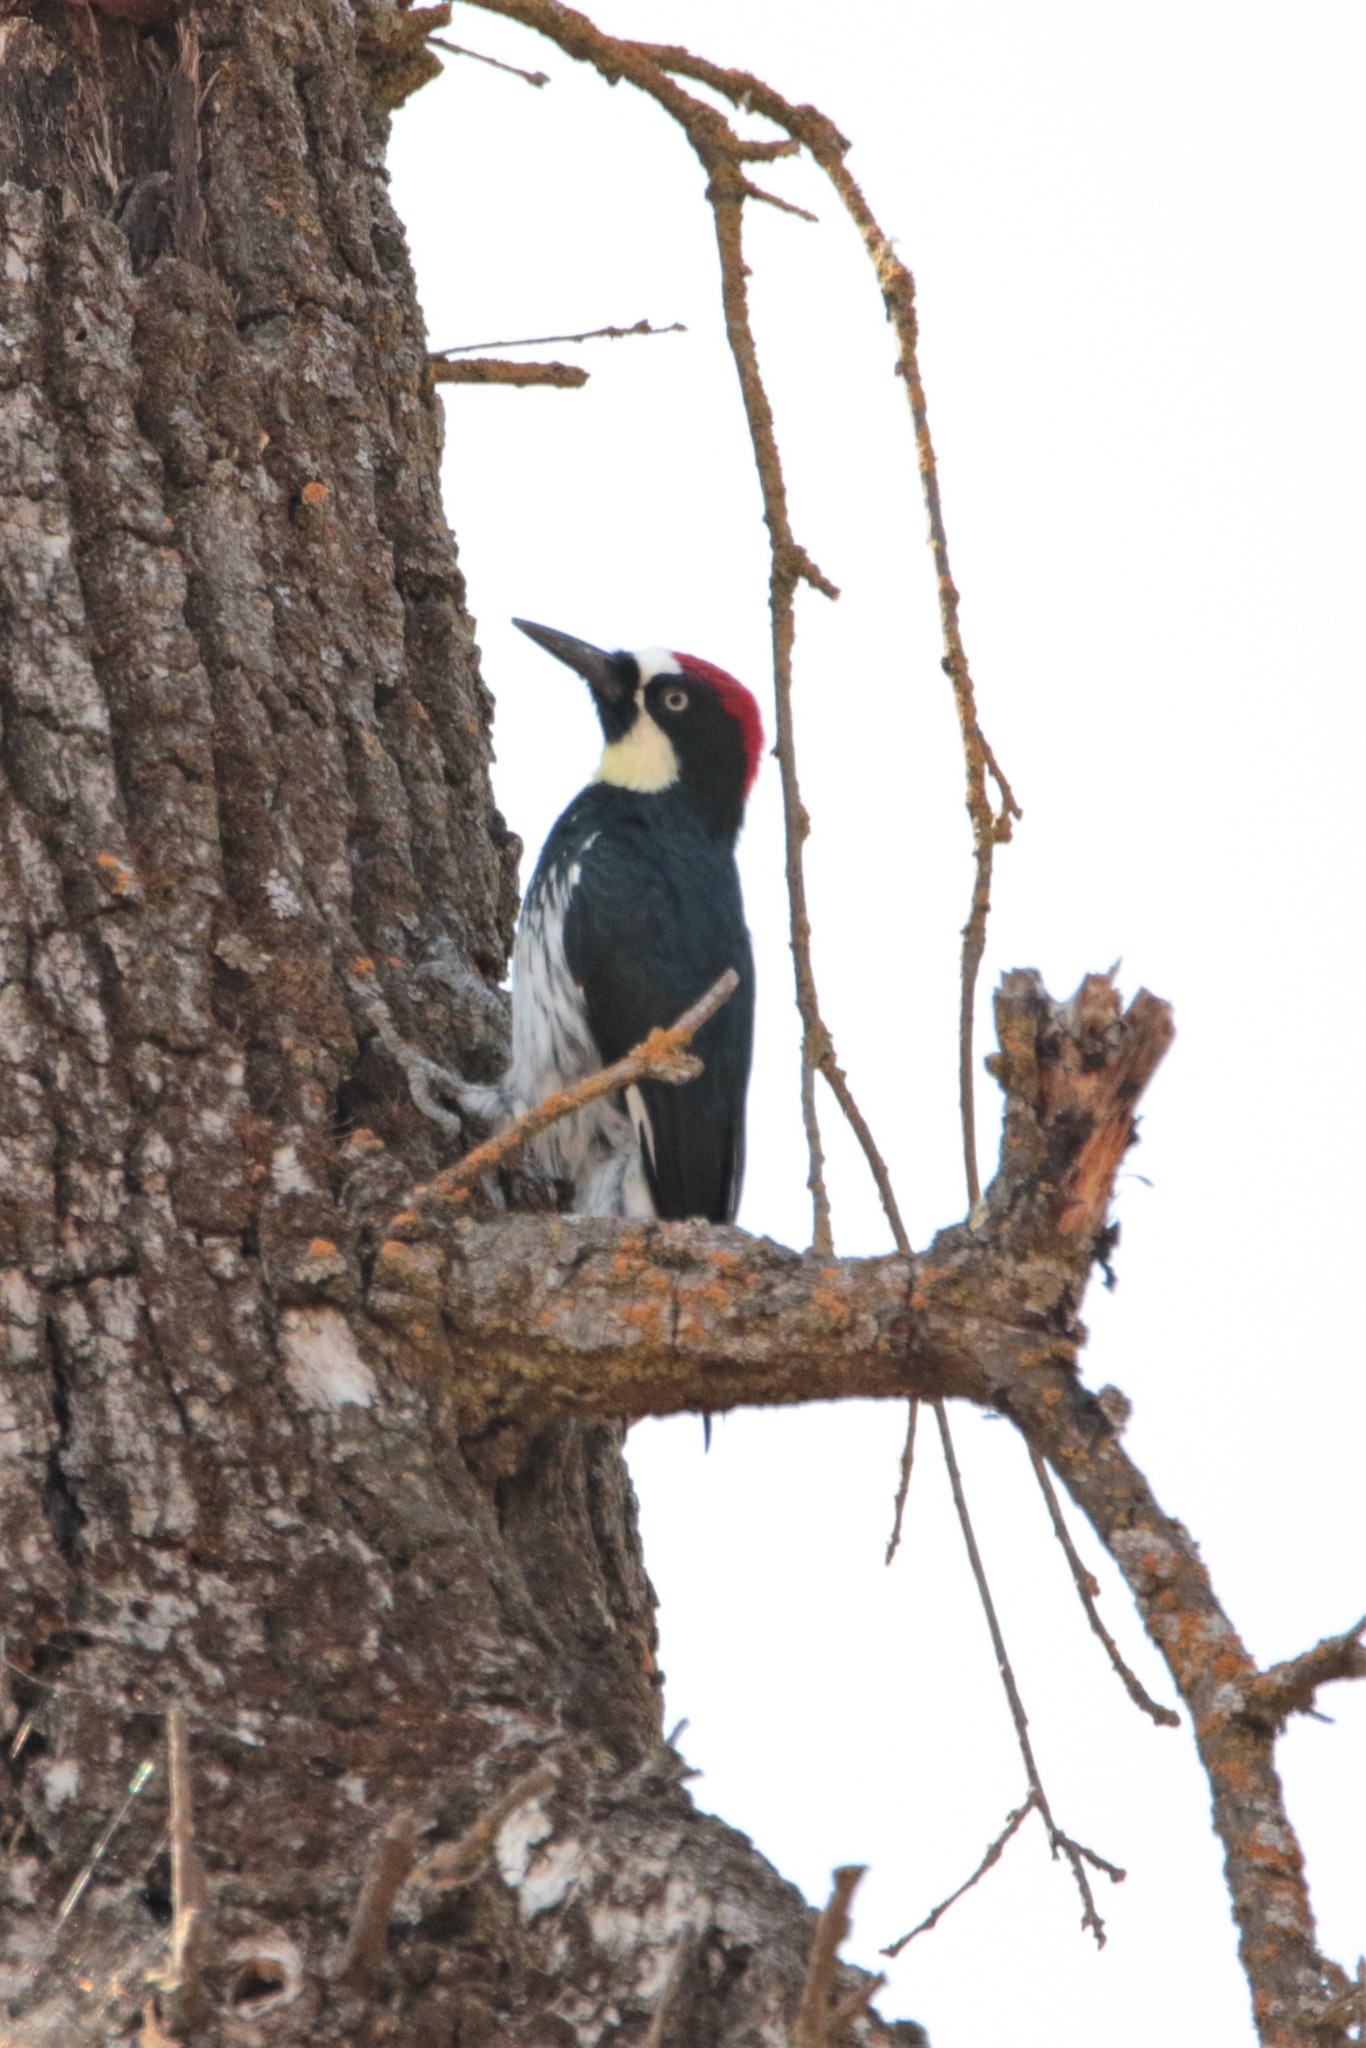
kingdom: Animalia
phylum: Chordata
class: Aves
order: Piciformes
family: Picidae
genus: Melanerpes
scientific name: Melanerpes formicivorus
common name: Acorn woodpecker
